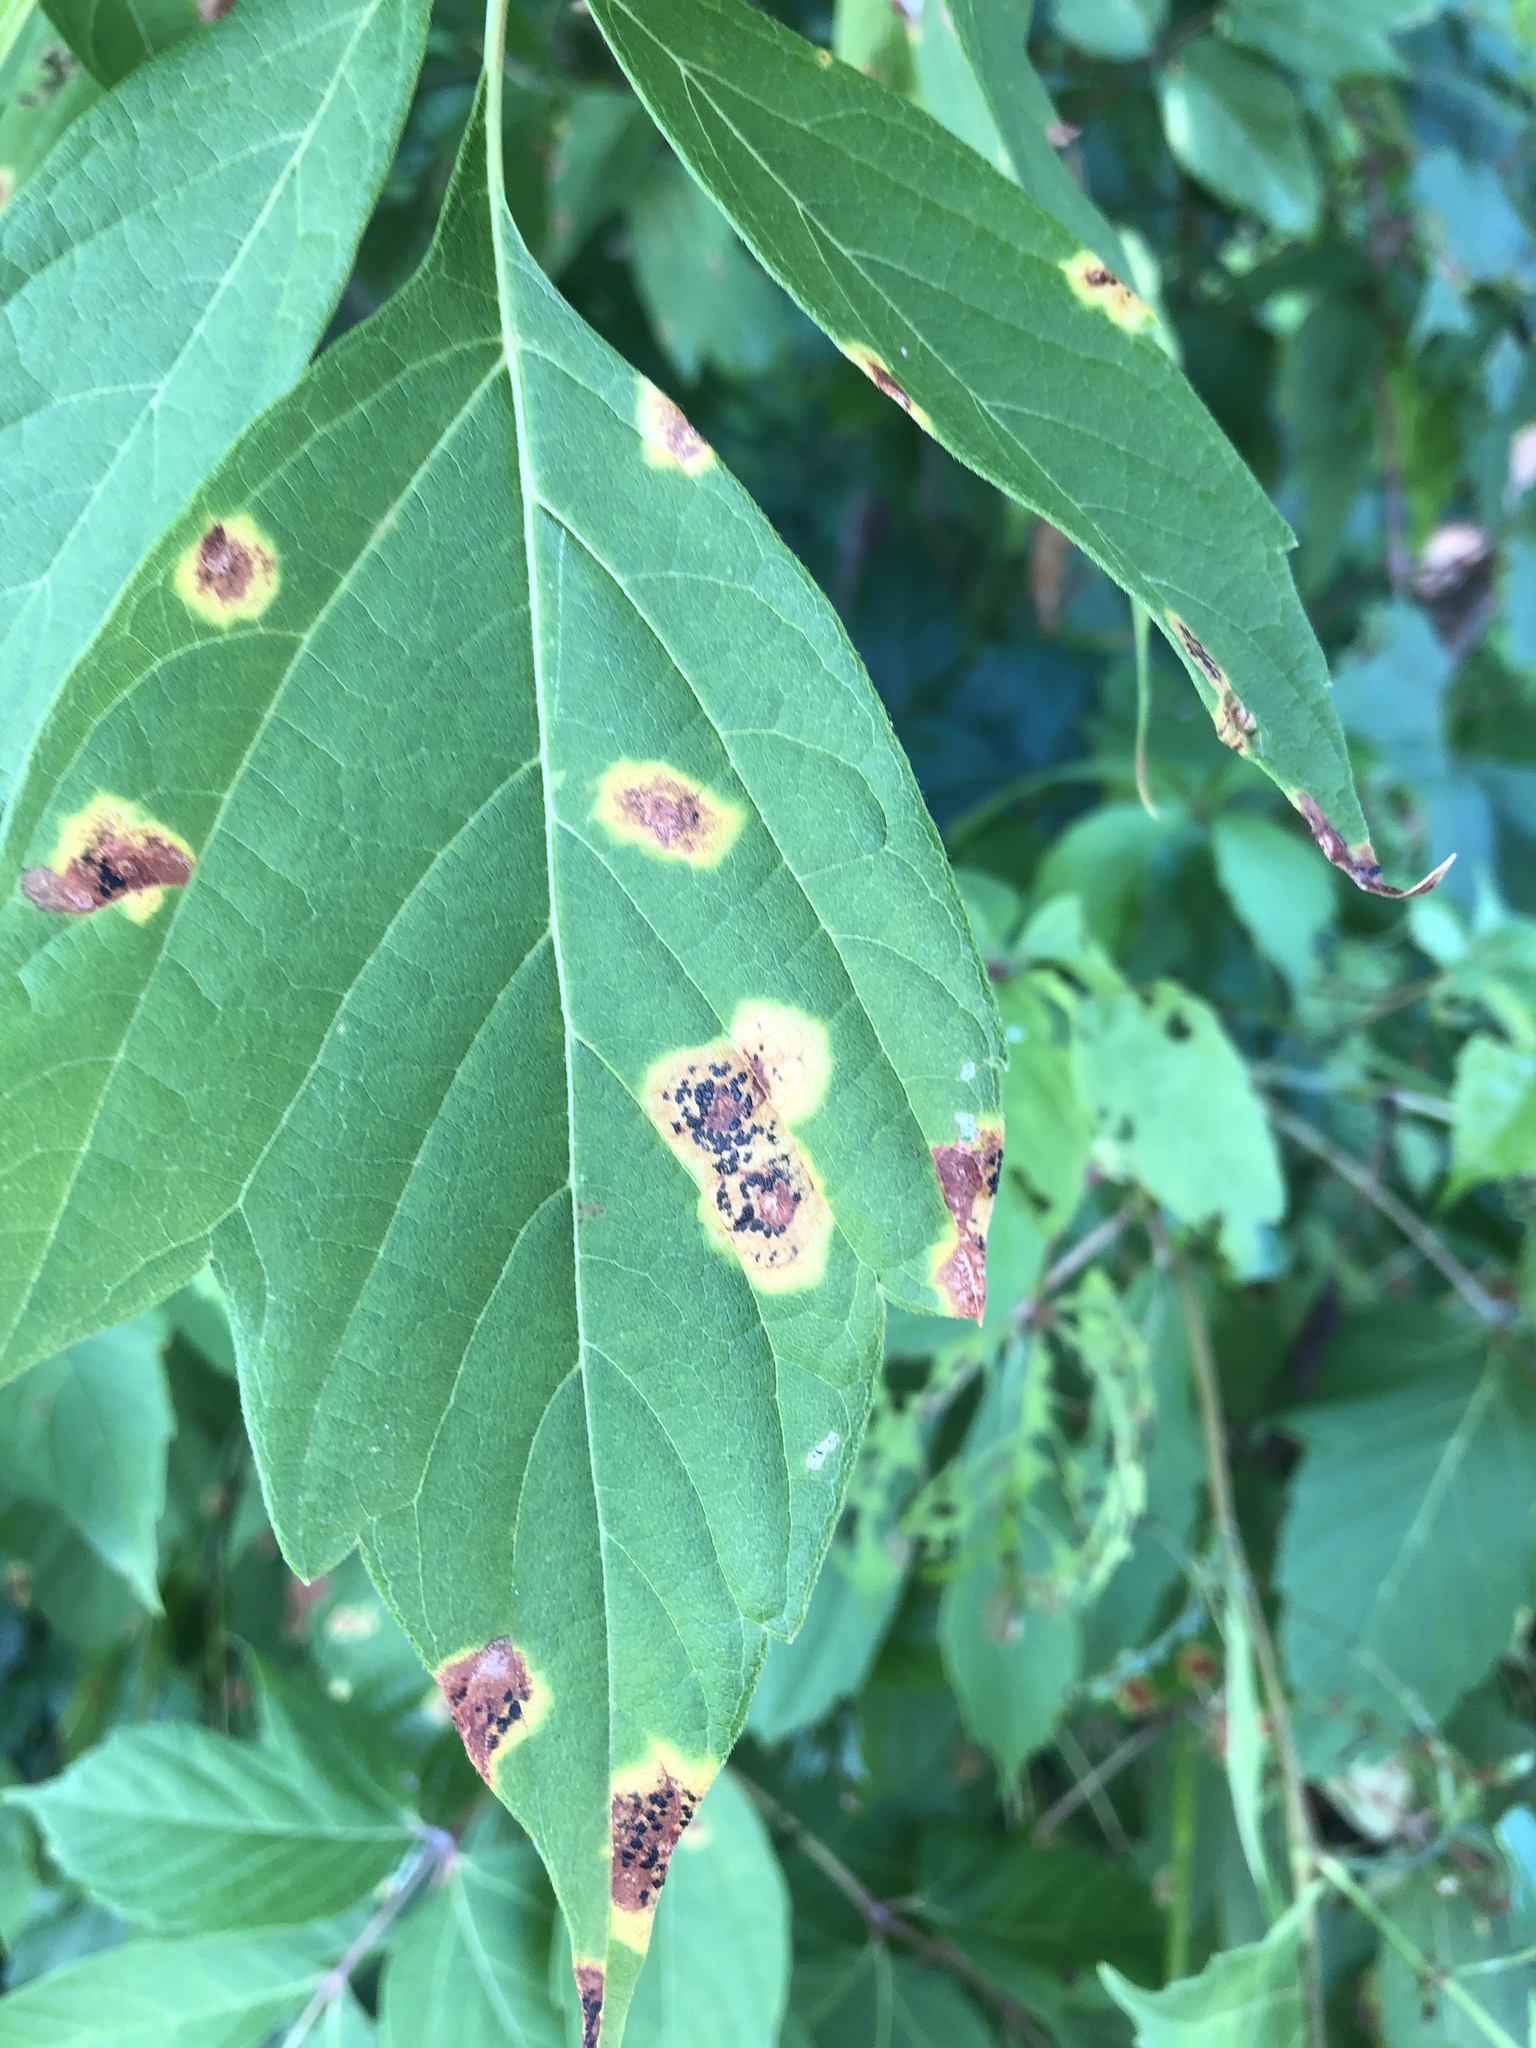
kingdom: Fungi
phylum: Ascomycota
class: Leotiomycetes
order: Rhytismatales
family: Rhytismataceae
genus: Rhytisma
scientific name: Rhytisma acerinum
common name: European tar spot
